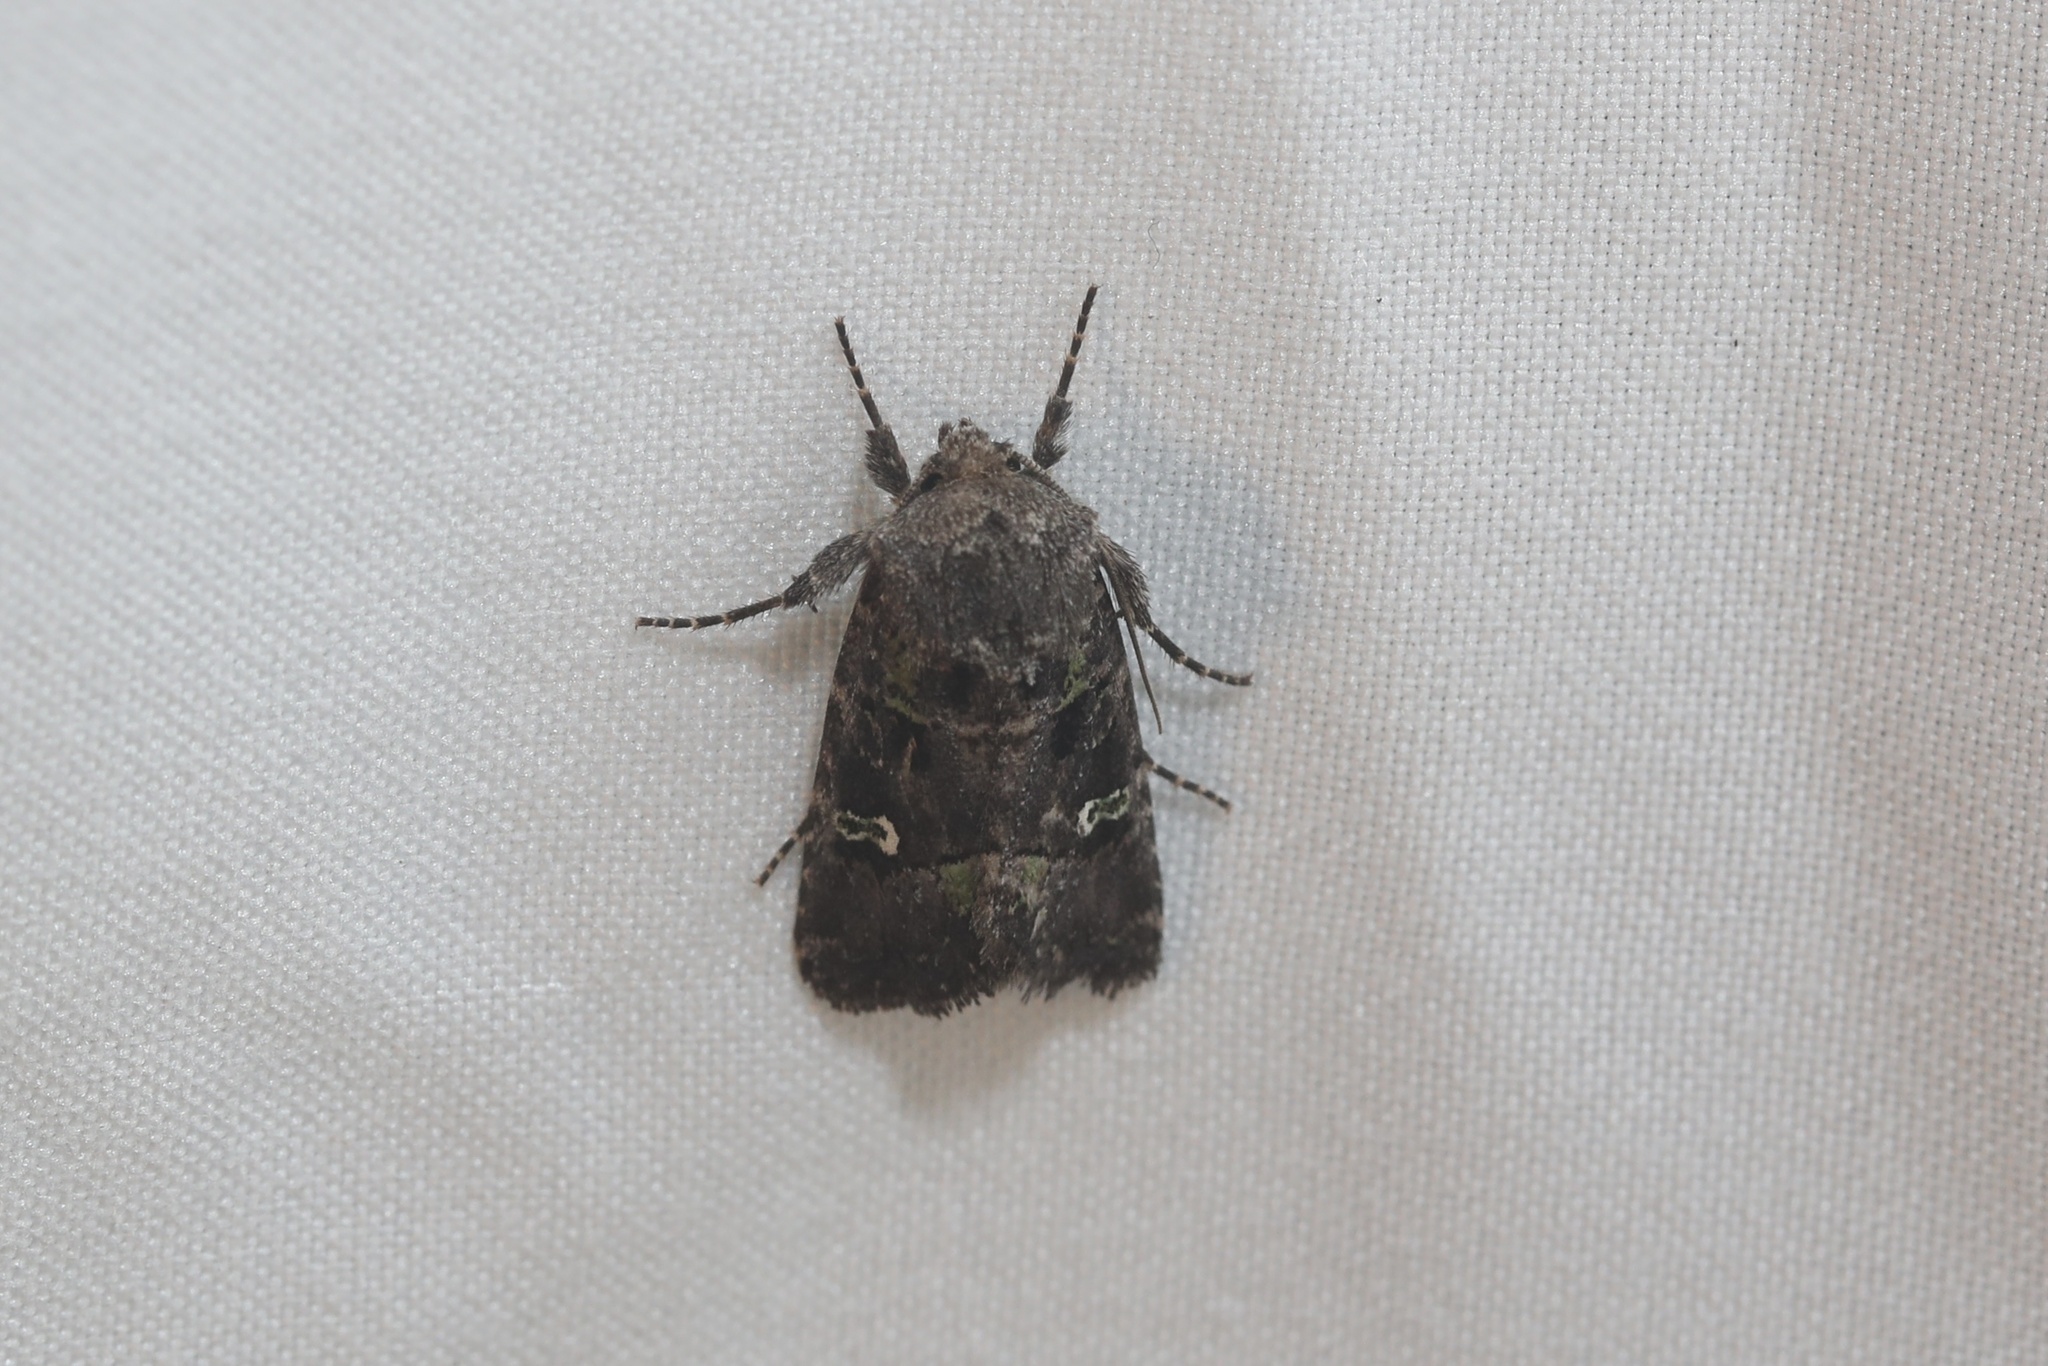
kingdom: Animalia
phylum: Arthropoda
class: Insecta
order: Lepidoptera
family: Noctuidae
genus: Lacinipolia
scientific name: Lacinipolia renigera
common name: Kidney-spotted minor
